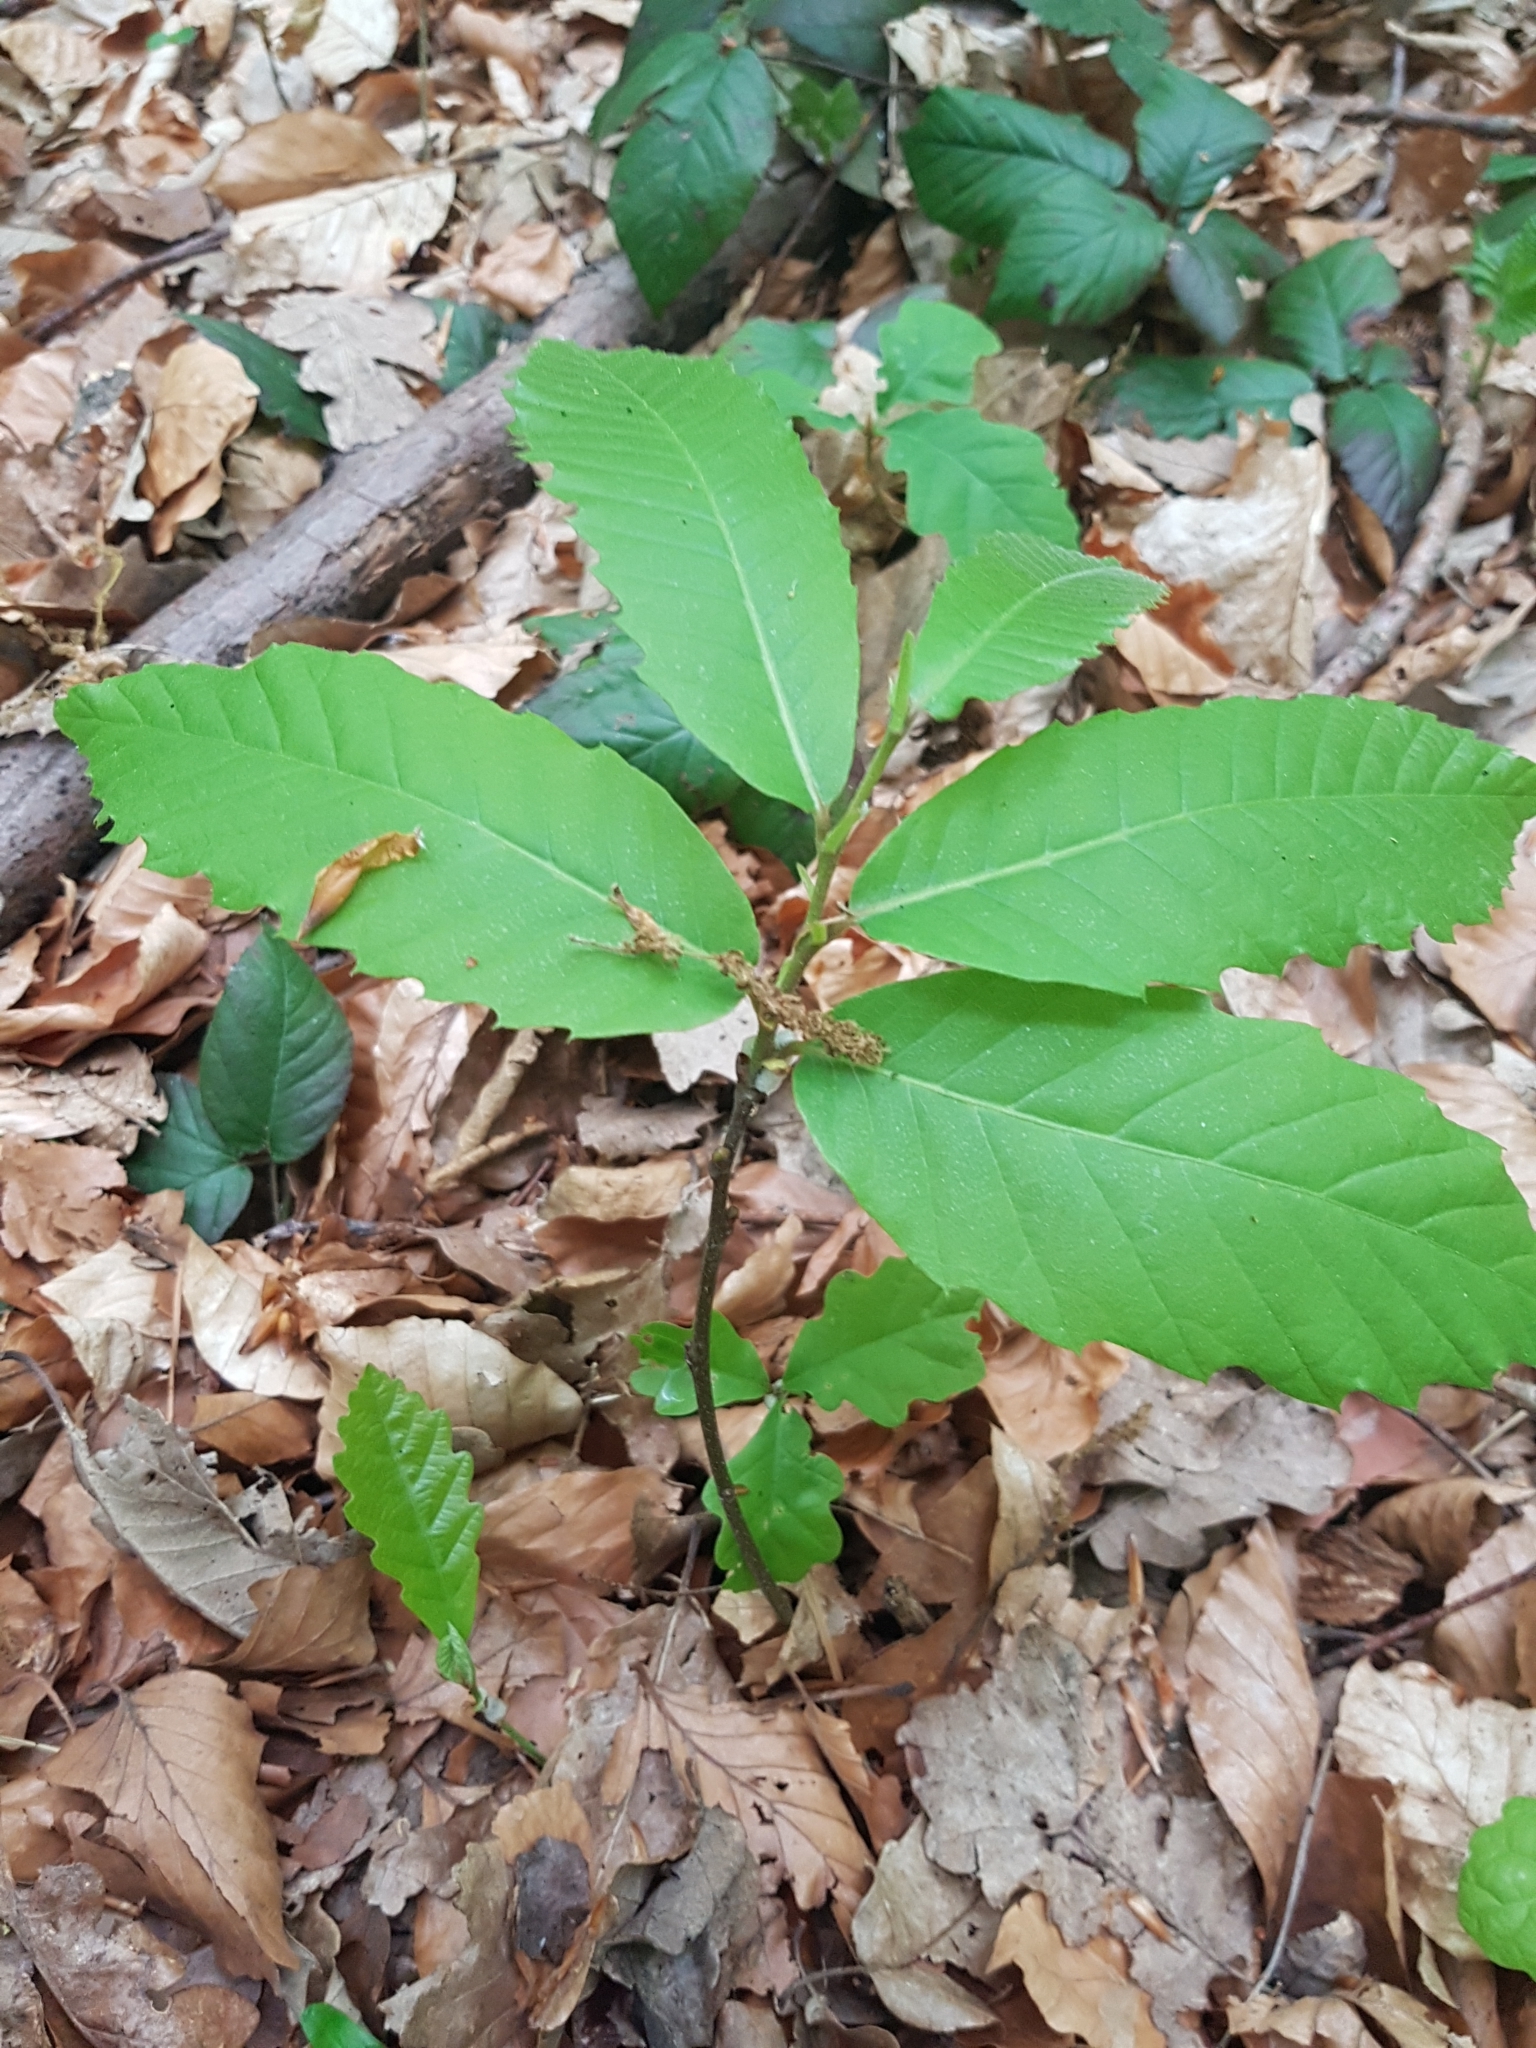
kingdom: Plantae
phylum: Tracheophyta
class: Magnoliopsida
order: Fagales
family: Fagaceae
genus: Castanea
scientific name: Castanea sativa
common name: Sweet chestnut
